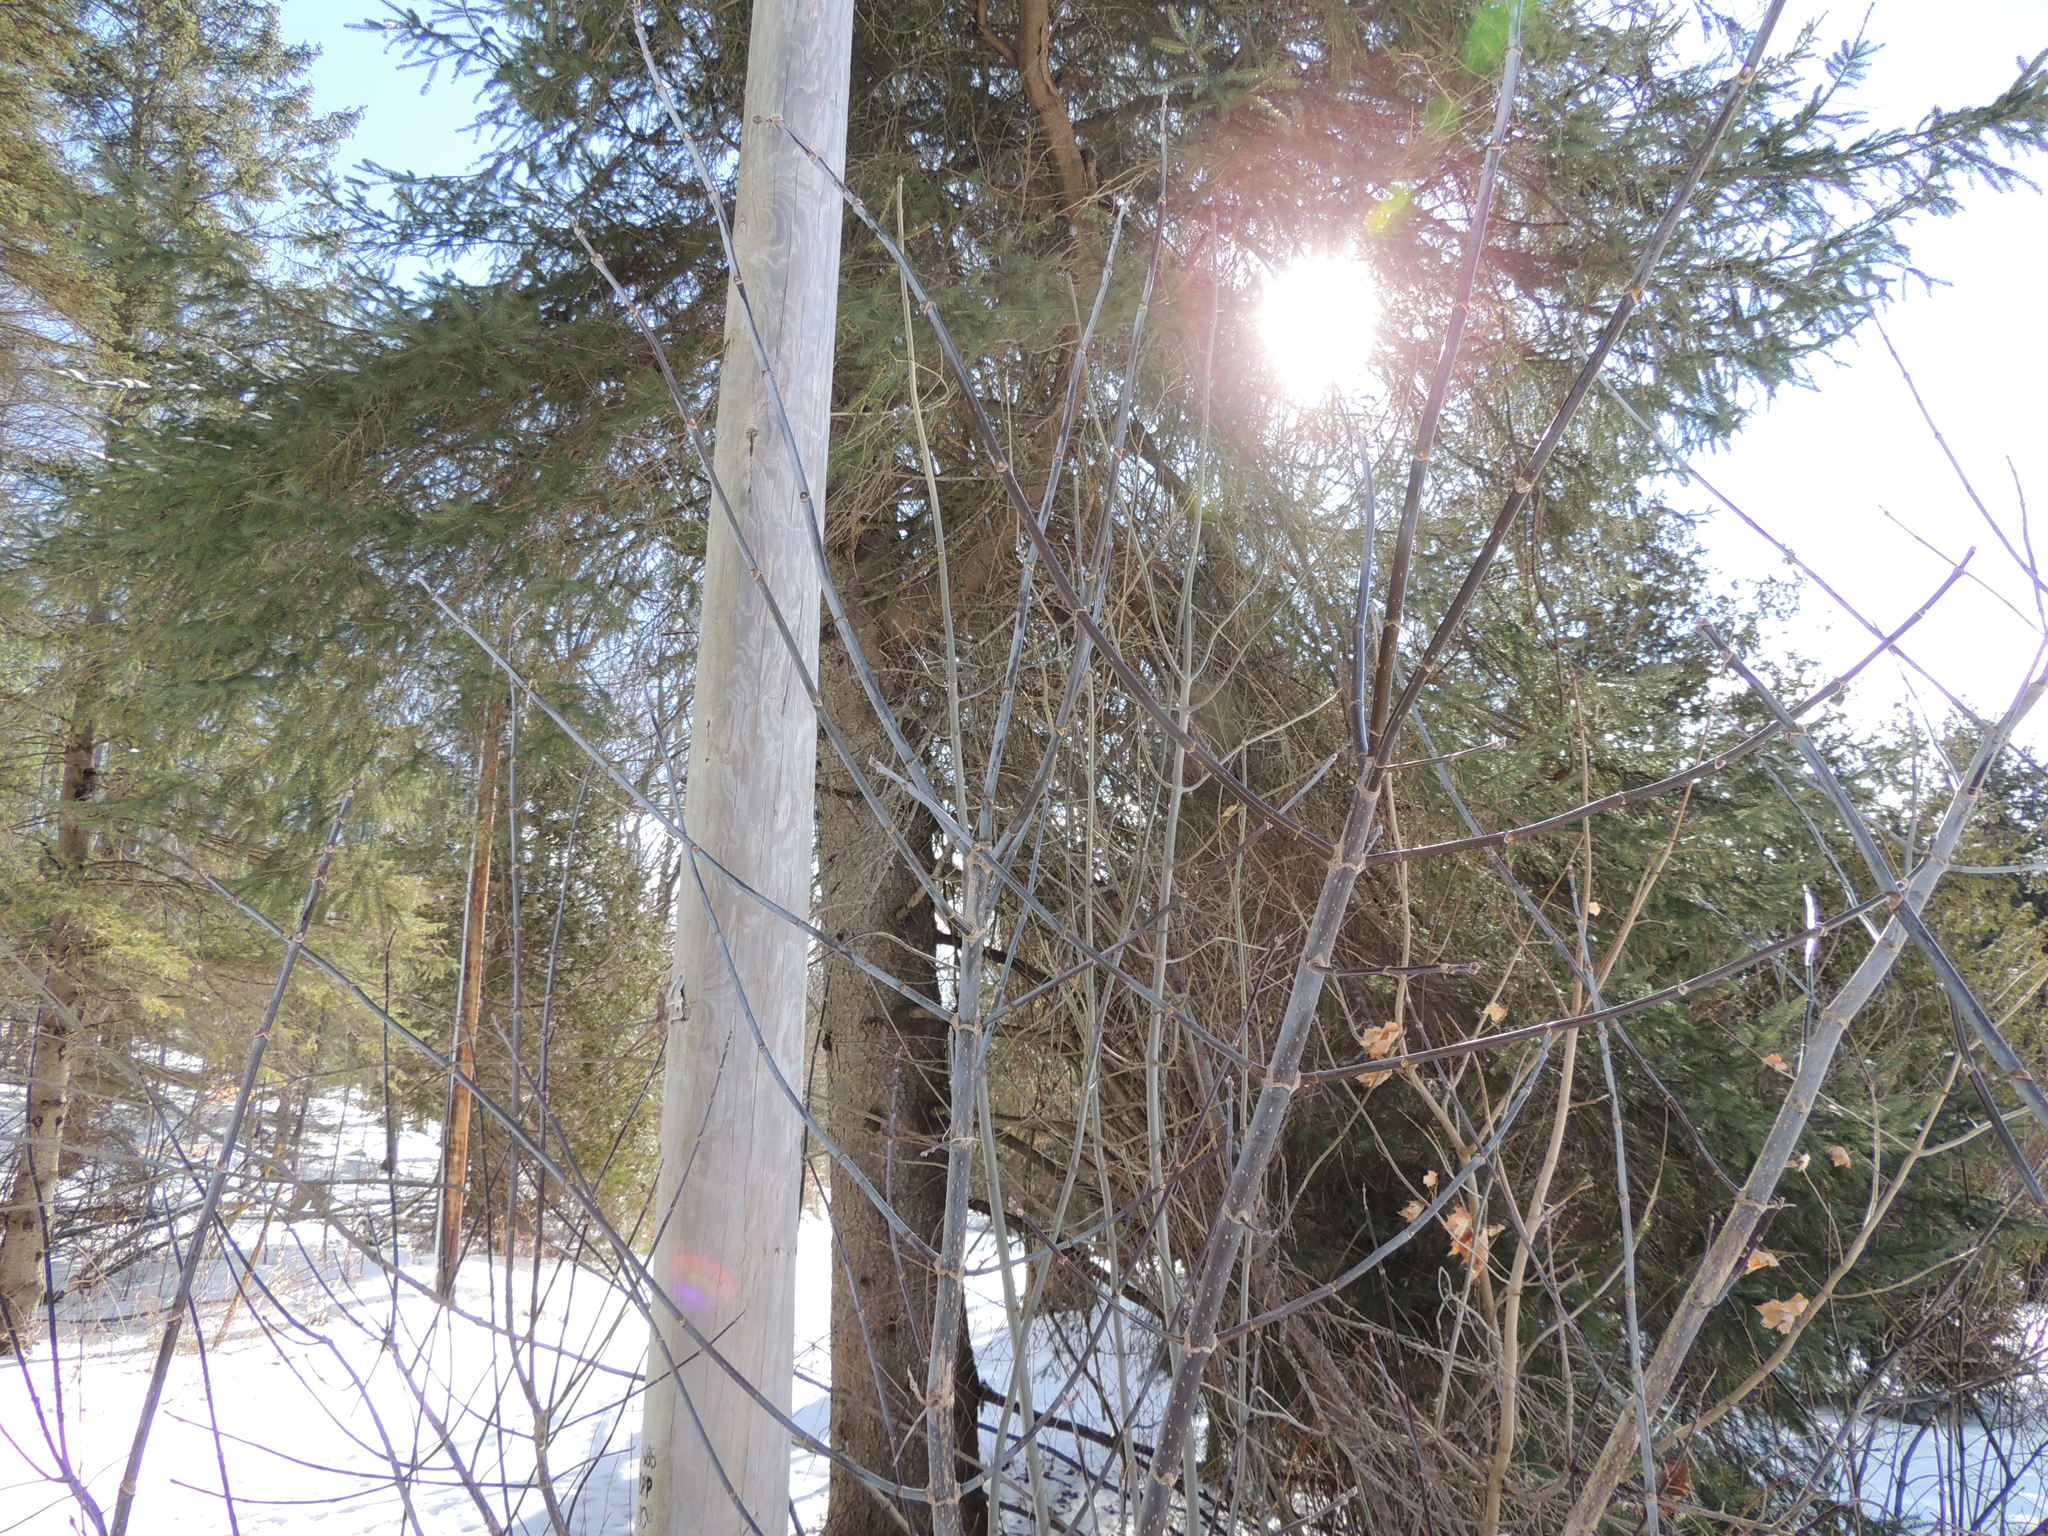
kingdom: Plantae
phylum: Tracheophyta
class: Magnoliopsida
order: Sapindales
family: Sapindaceae
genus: Acer
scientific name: Acer negundo
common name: Ashleaf maple
